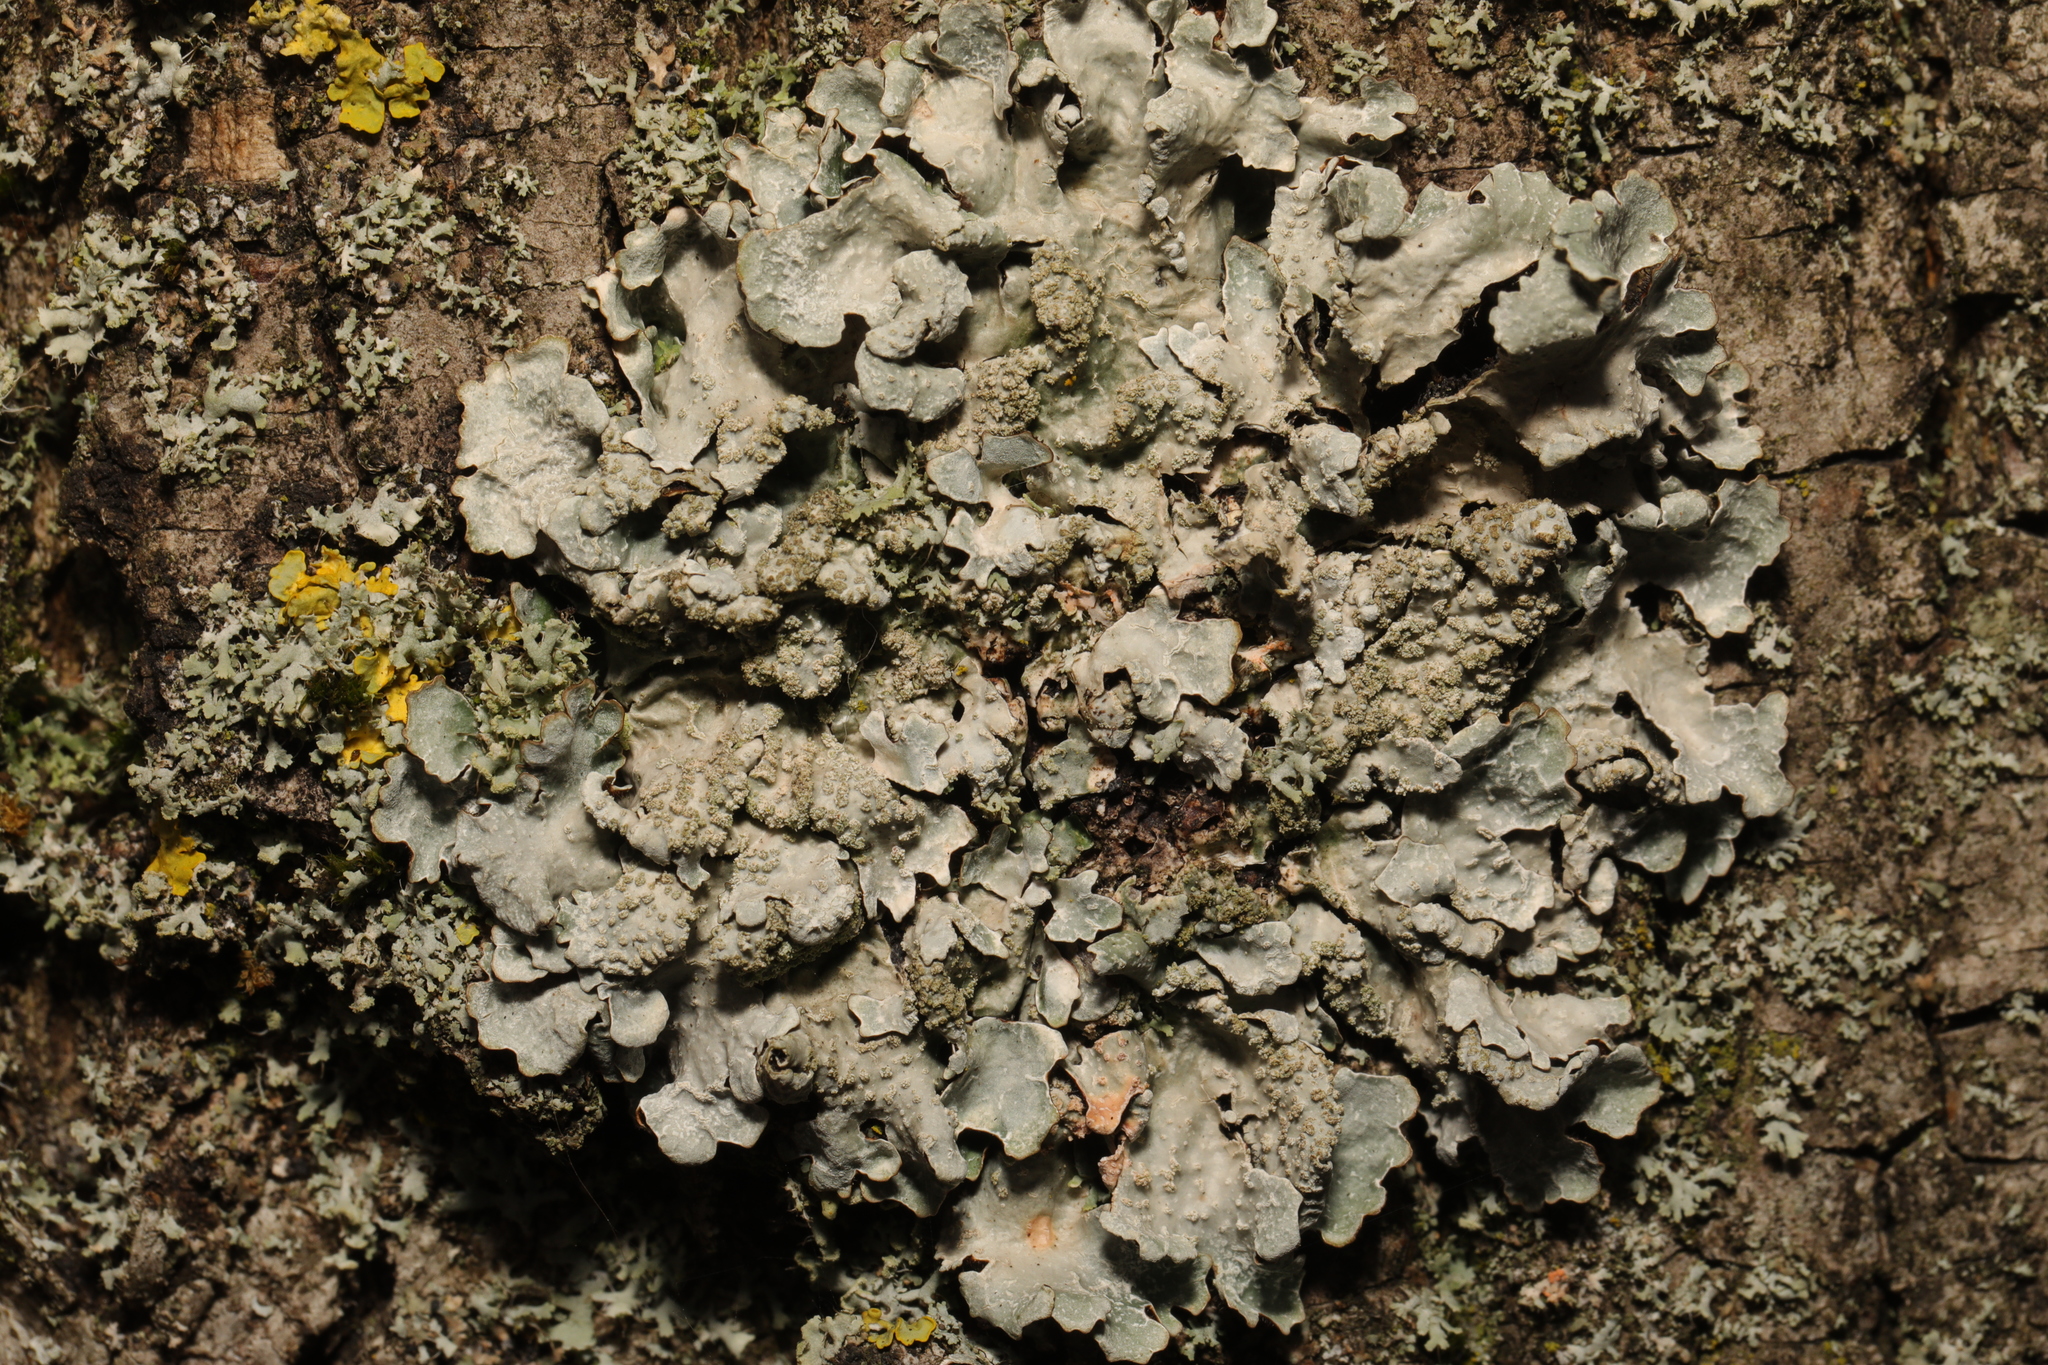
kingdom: Fungi
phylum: Ascomycota
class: Lecanoromycetes
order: Lecanorales
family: Parmeliaceae
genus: Parmelia
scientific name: Parmelia sulcata
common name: Netted shield lichen
